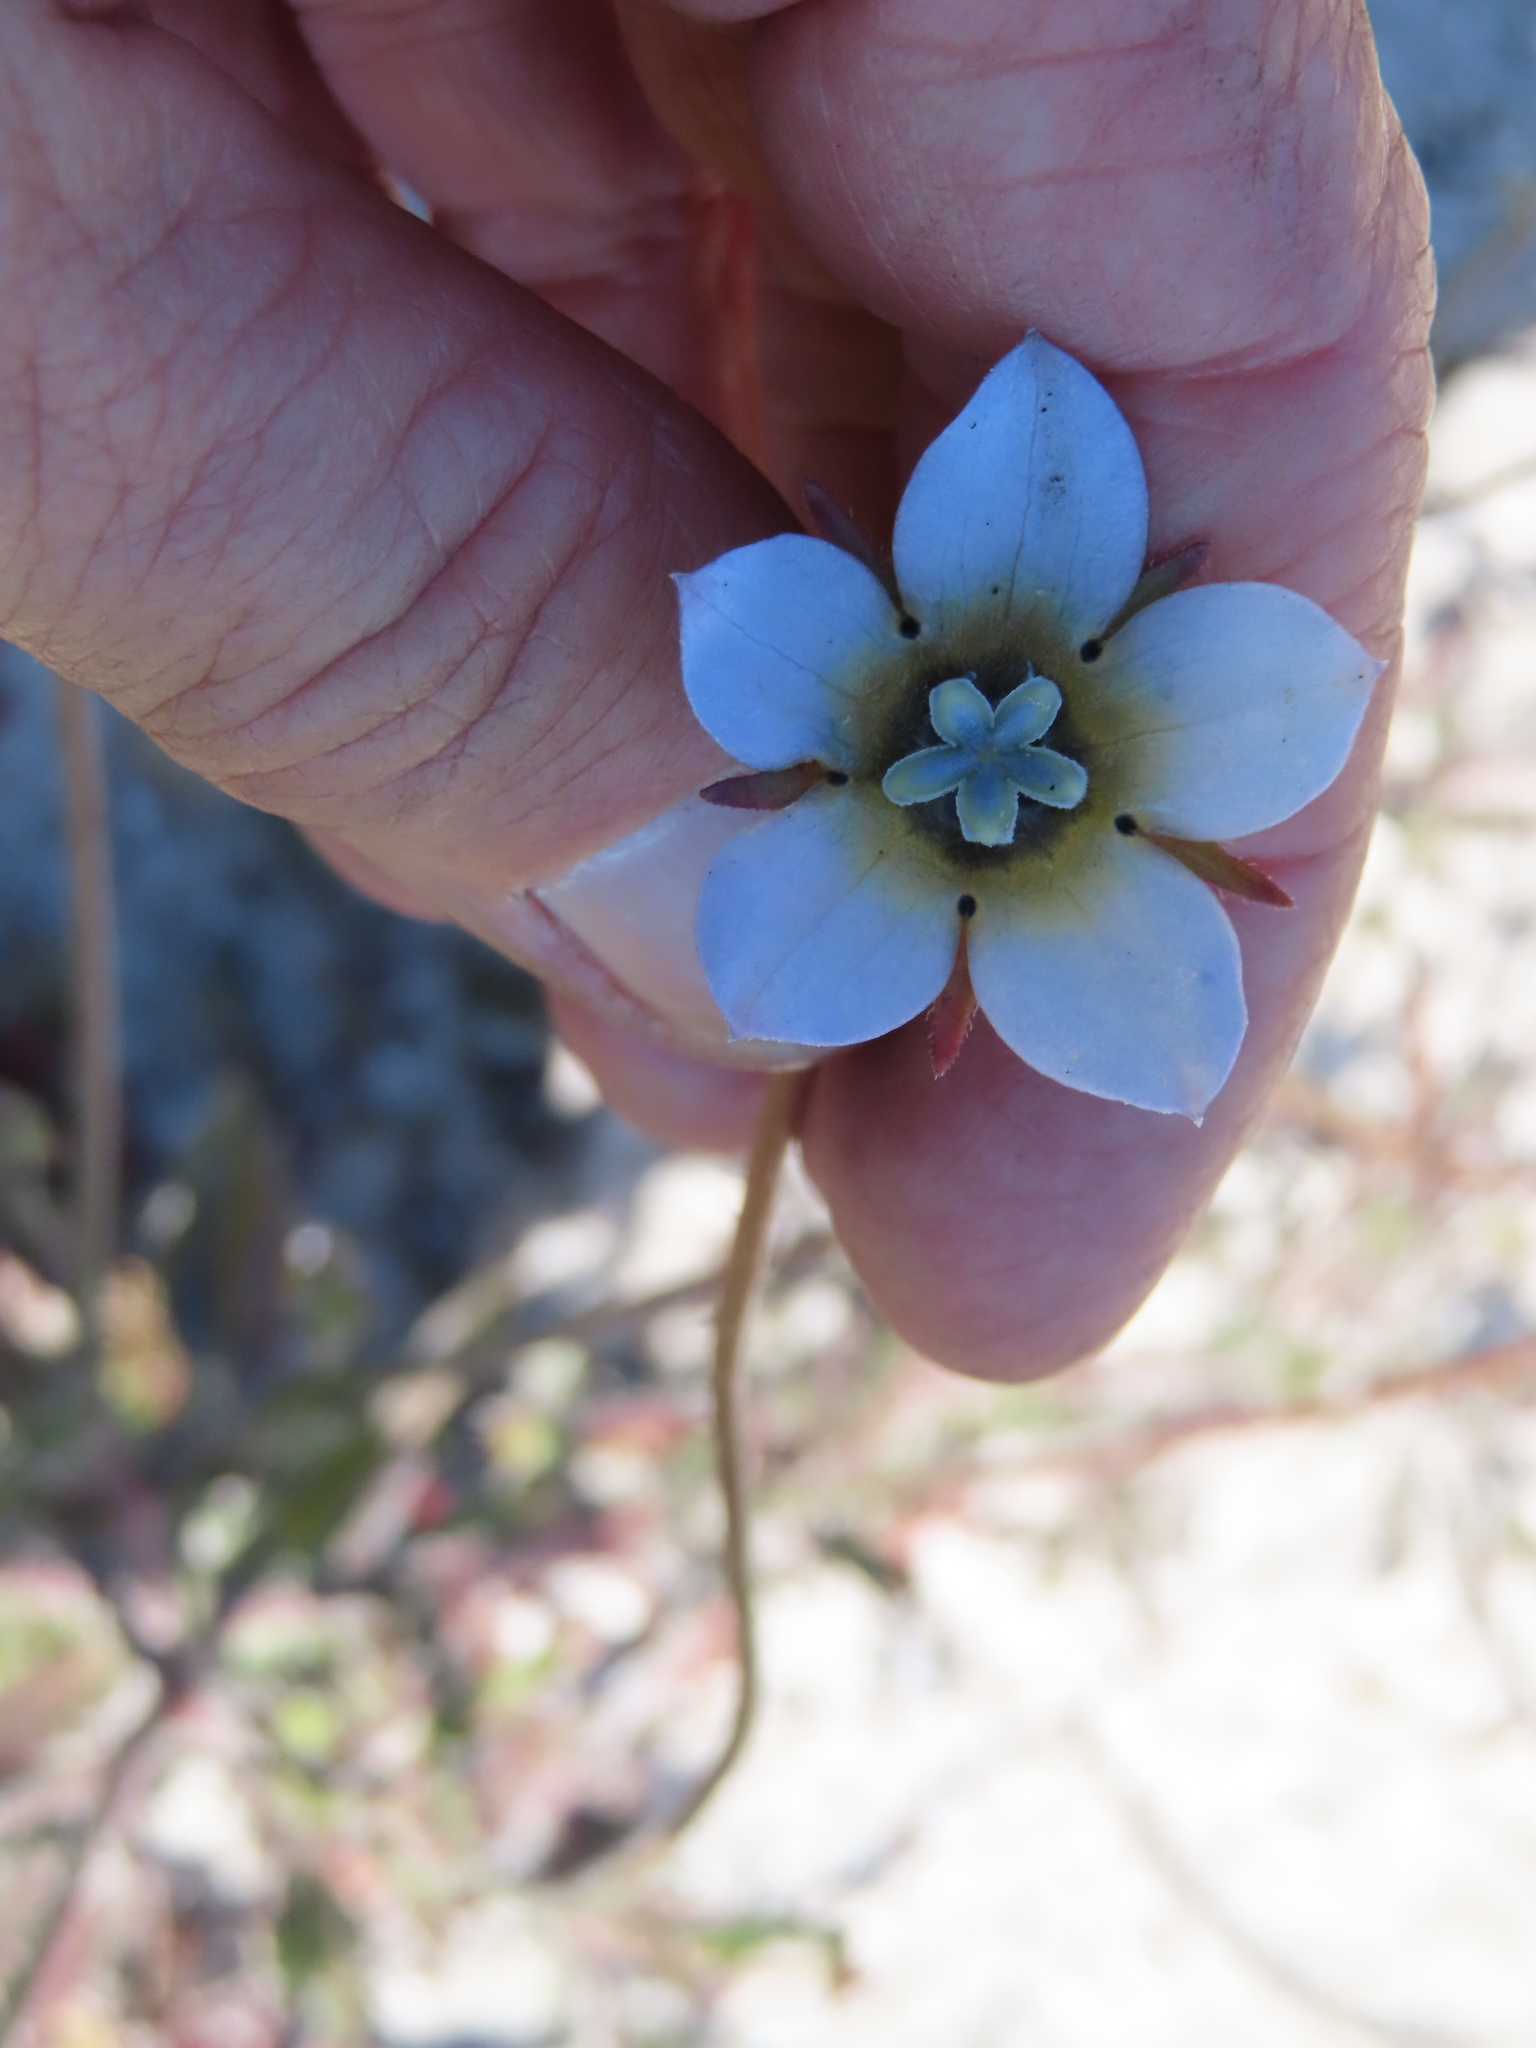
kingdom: Plantae
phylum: Tracheophyta
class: Magnoliopsida
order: Asterales
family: Campanulaceae
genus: Wahlenbergia
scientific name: Wahlenbergia capensis
